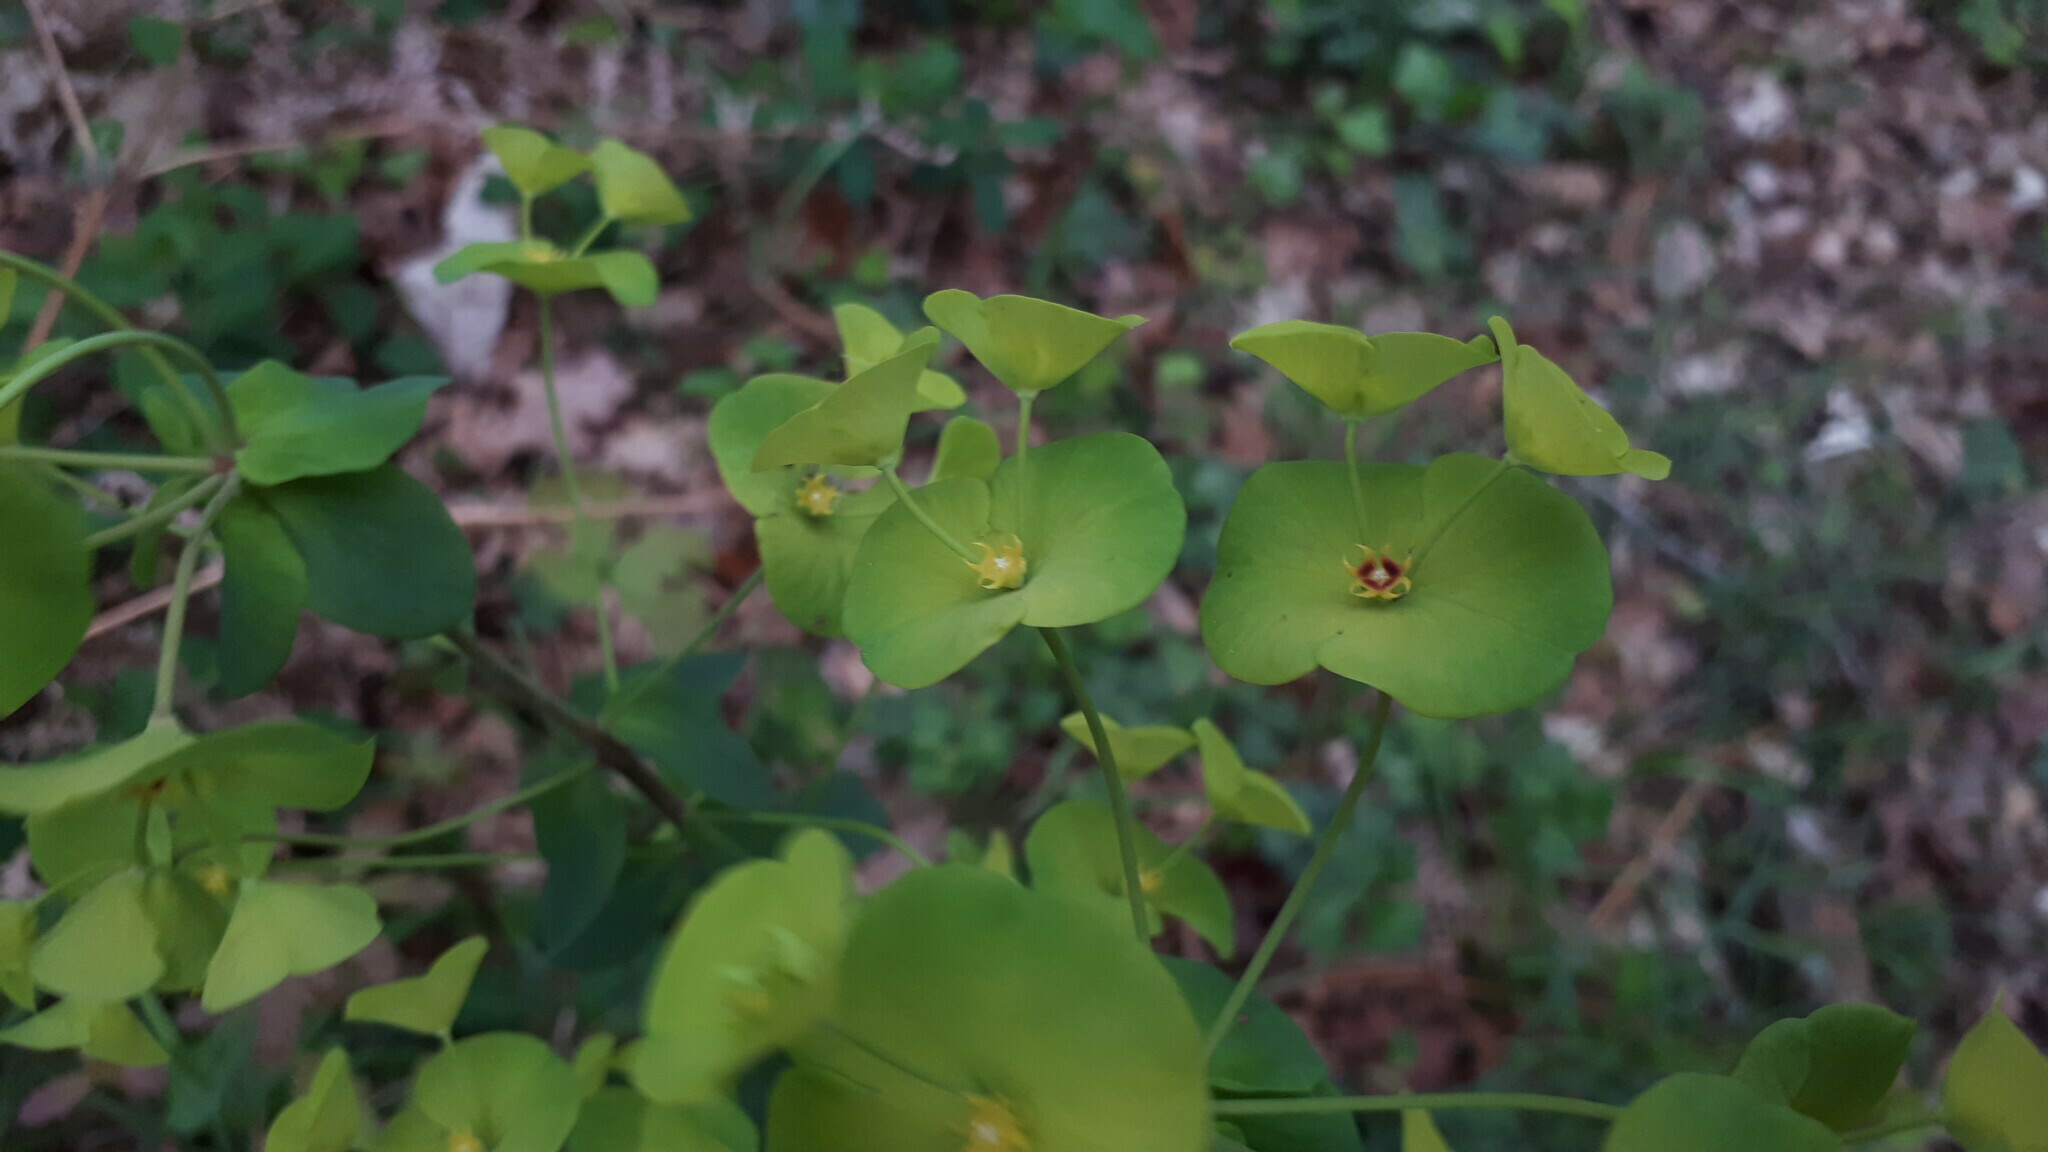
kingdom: Plantae
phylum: Tracheophyta
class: Magnoliopsida
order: Malpighiales
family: Euphorbiaceae
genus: Euphorbia
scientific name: Euphorbia amygdaloides
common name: Wood spurge
